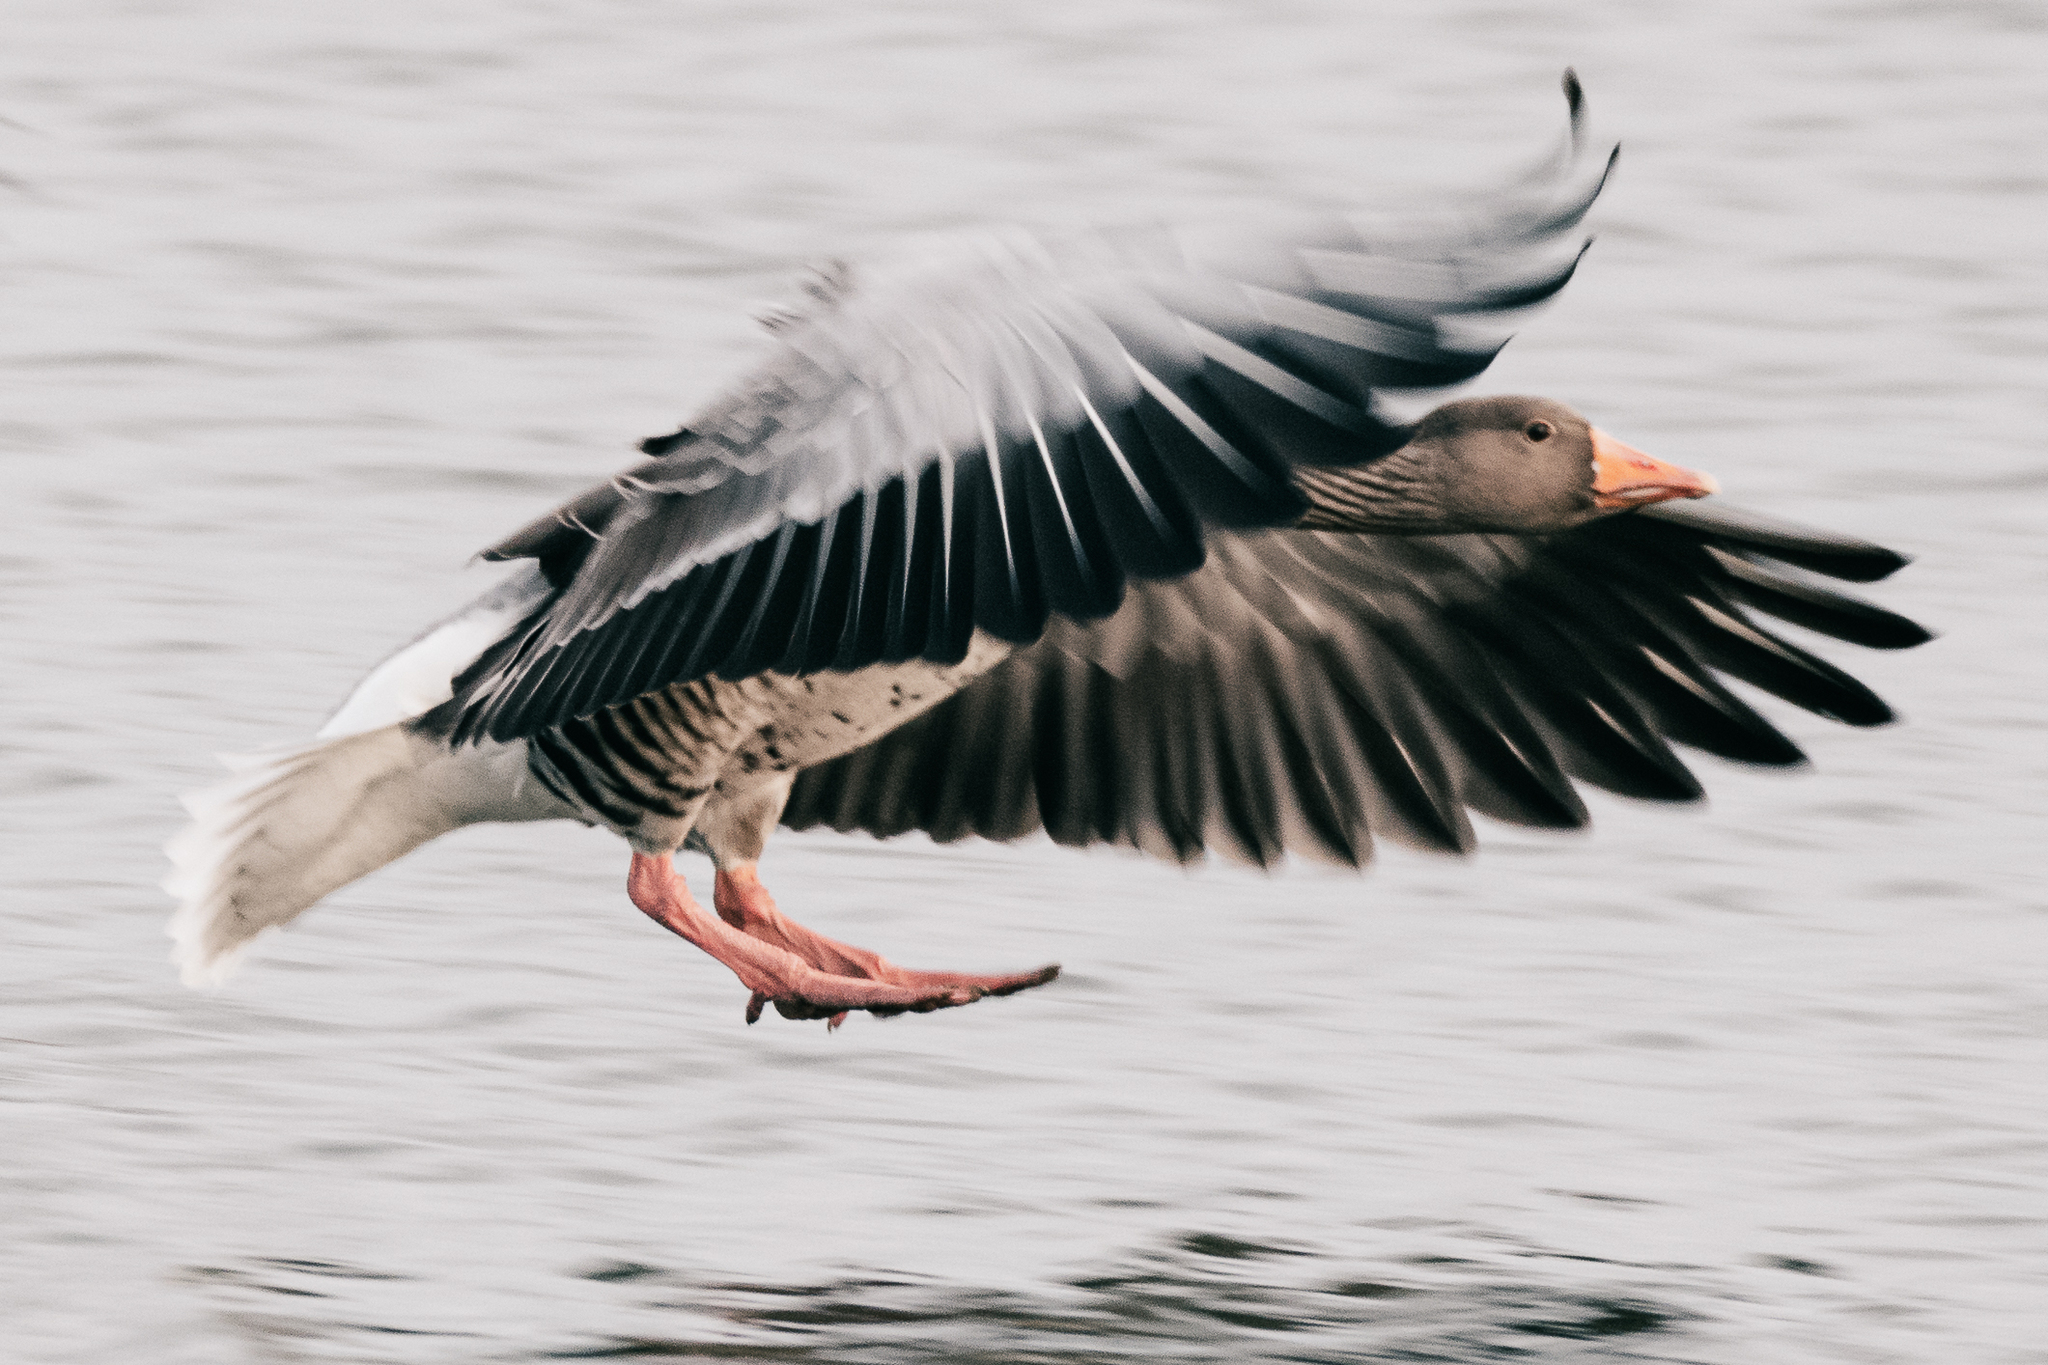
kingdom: Animalia
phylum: Chordata
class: Aves
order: Anseriformes
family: Anatidae
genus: Anser
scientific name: Anser anser
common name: Greylag goose
